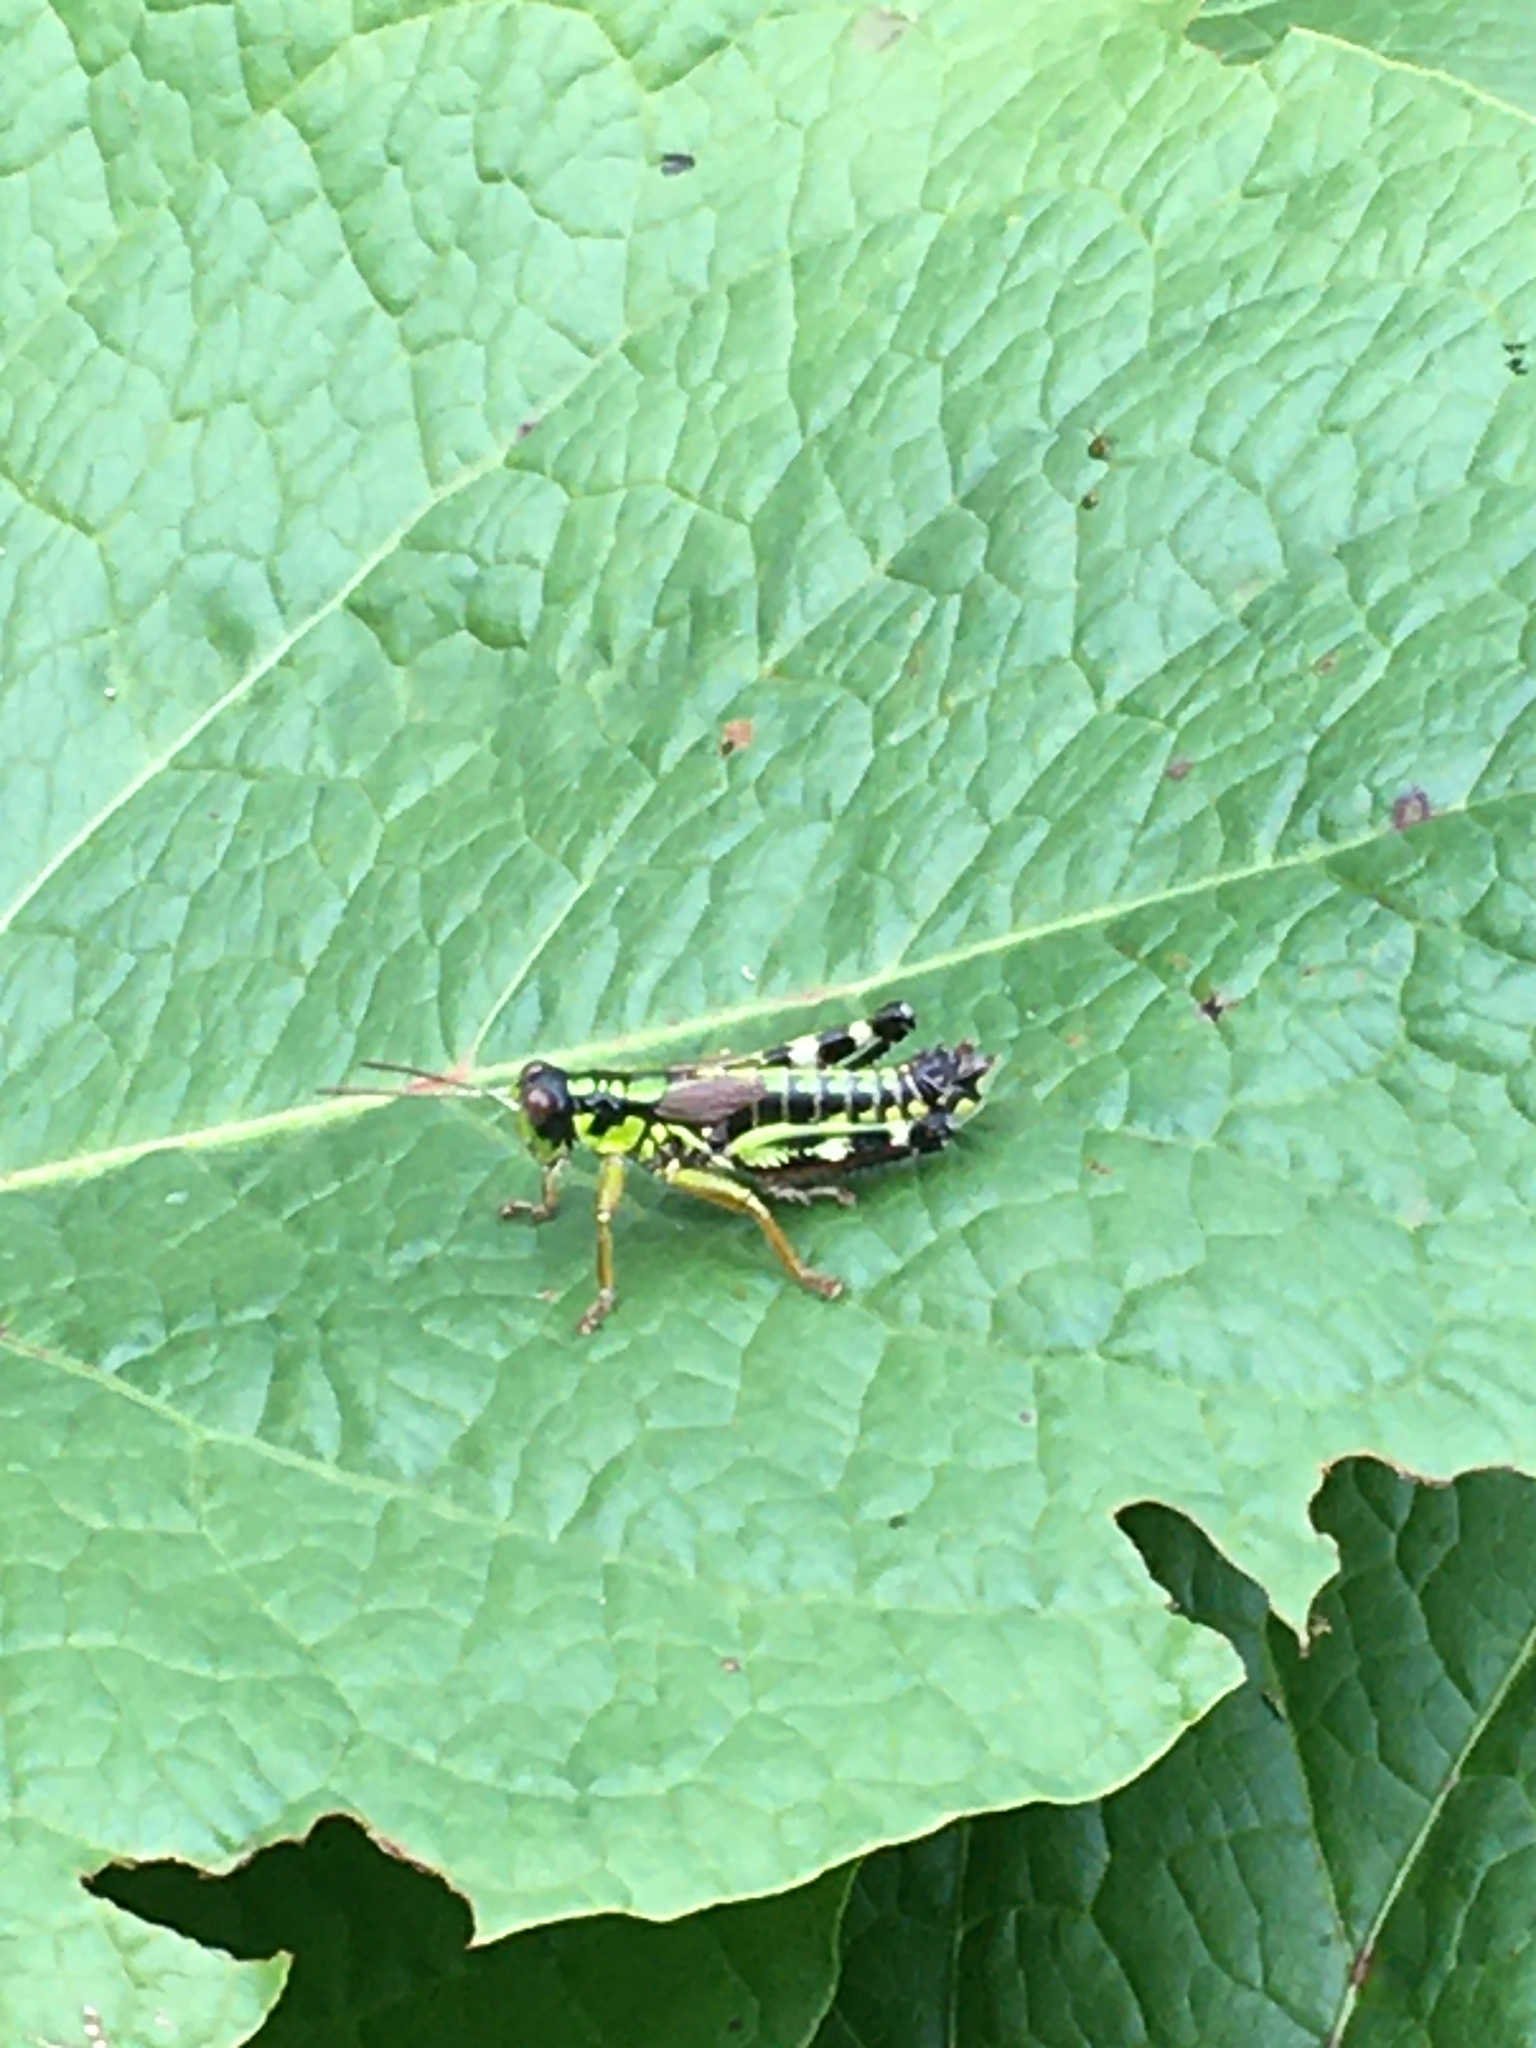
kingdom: Animalia
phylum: Arthropoda
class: Insecta
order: Orthoptera
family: Acrididae
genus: Miramella
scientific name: Miramella alpina
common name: Green mountain grasshopper
